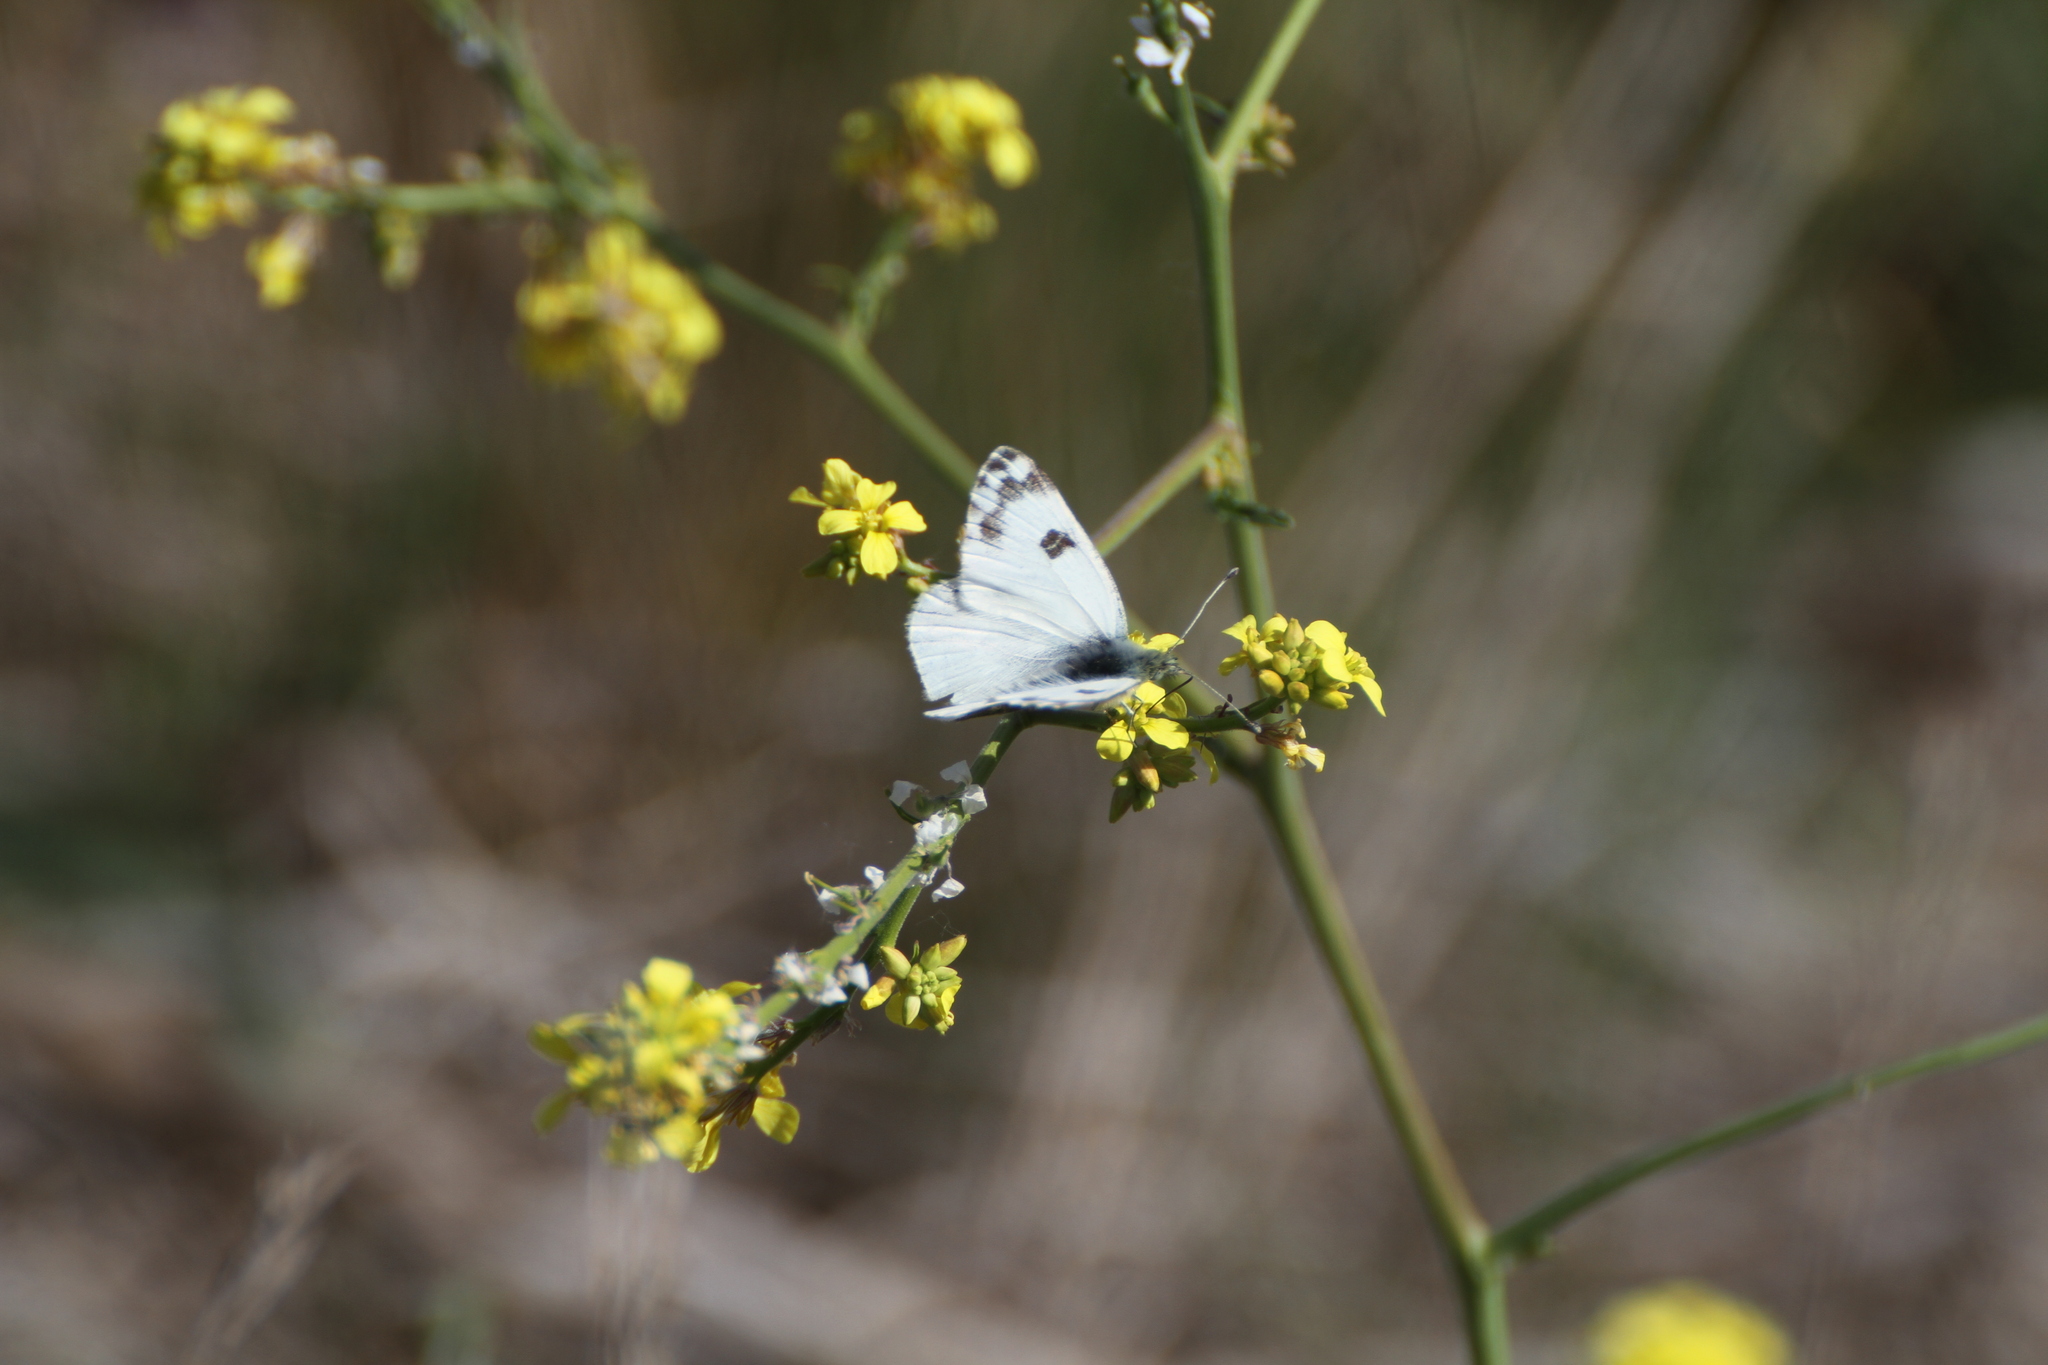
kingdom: Animalia
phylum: Arthropoda
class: Insecta
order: Lepidoptera
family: Pieridae
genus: Pontia
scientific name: Pontia daplidice
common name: Bath white
